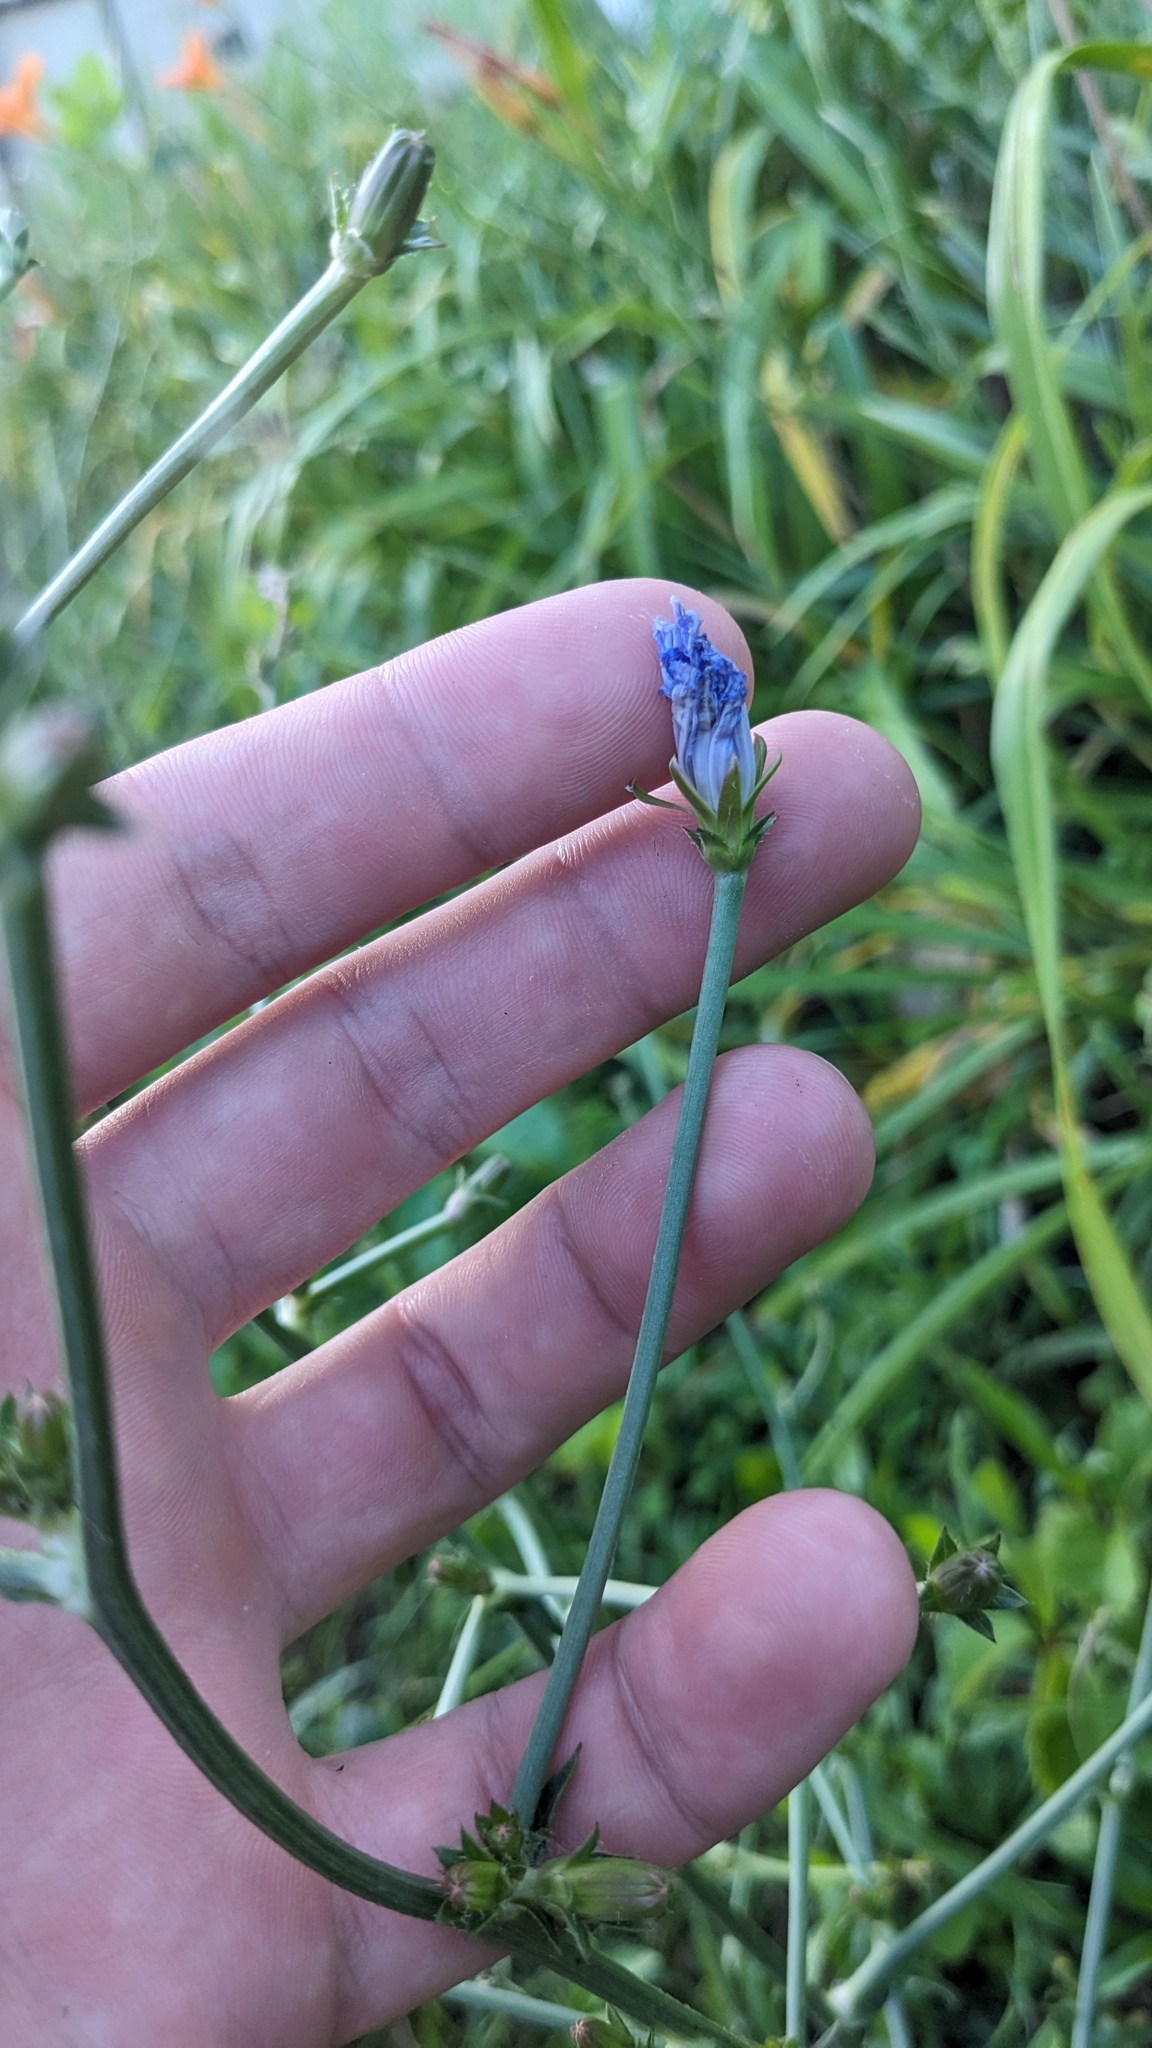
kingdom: Plantae
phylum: Tracheophyta
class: Magnoliopsida
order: Asterales
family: Asteraceae
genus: Cichorium
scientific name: Cichorium intybus
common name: Chicory
